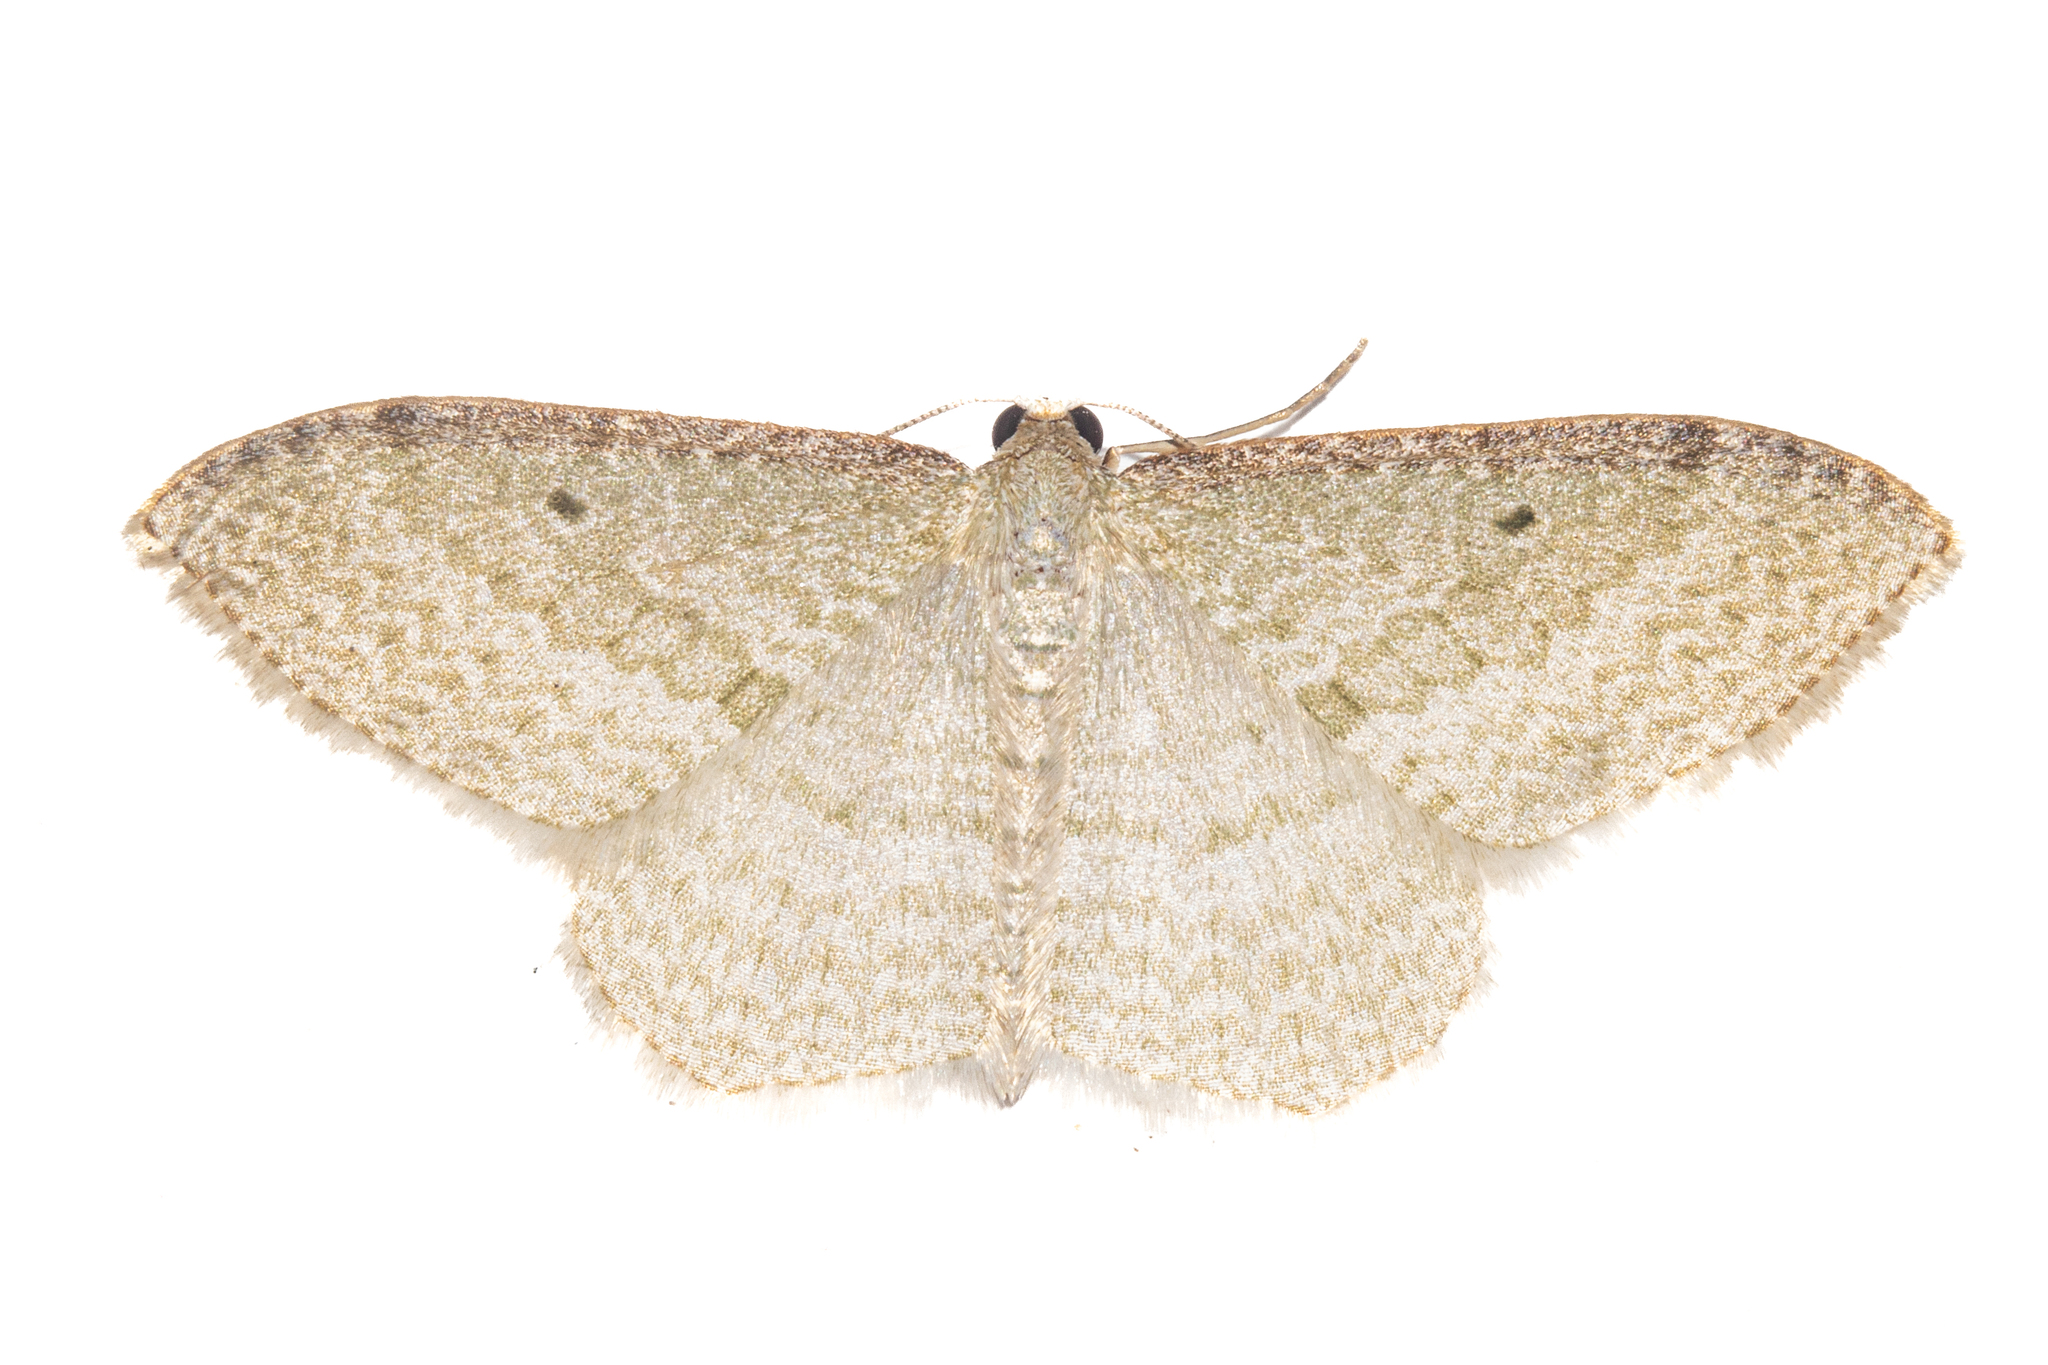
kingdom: Animalia
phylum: Arthropoda
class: Insecta
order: Lepidoptera
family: Geometridae
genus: Poecilasthena
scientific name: Poecilasthena pulchraria
